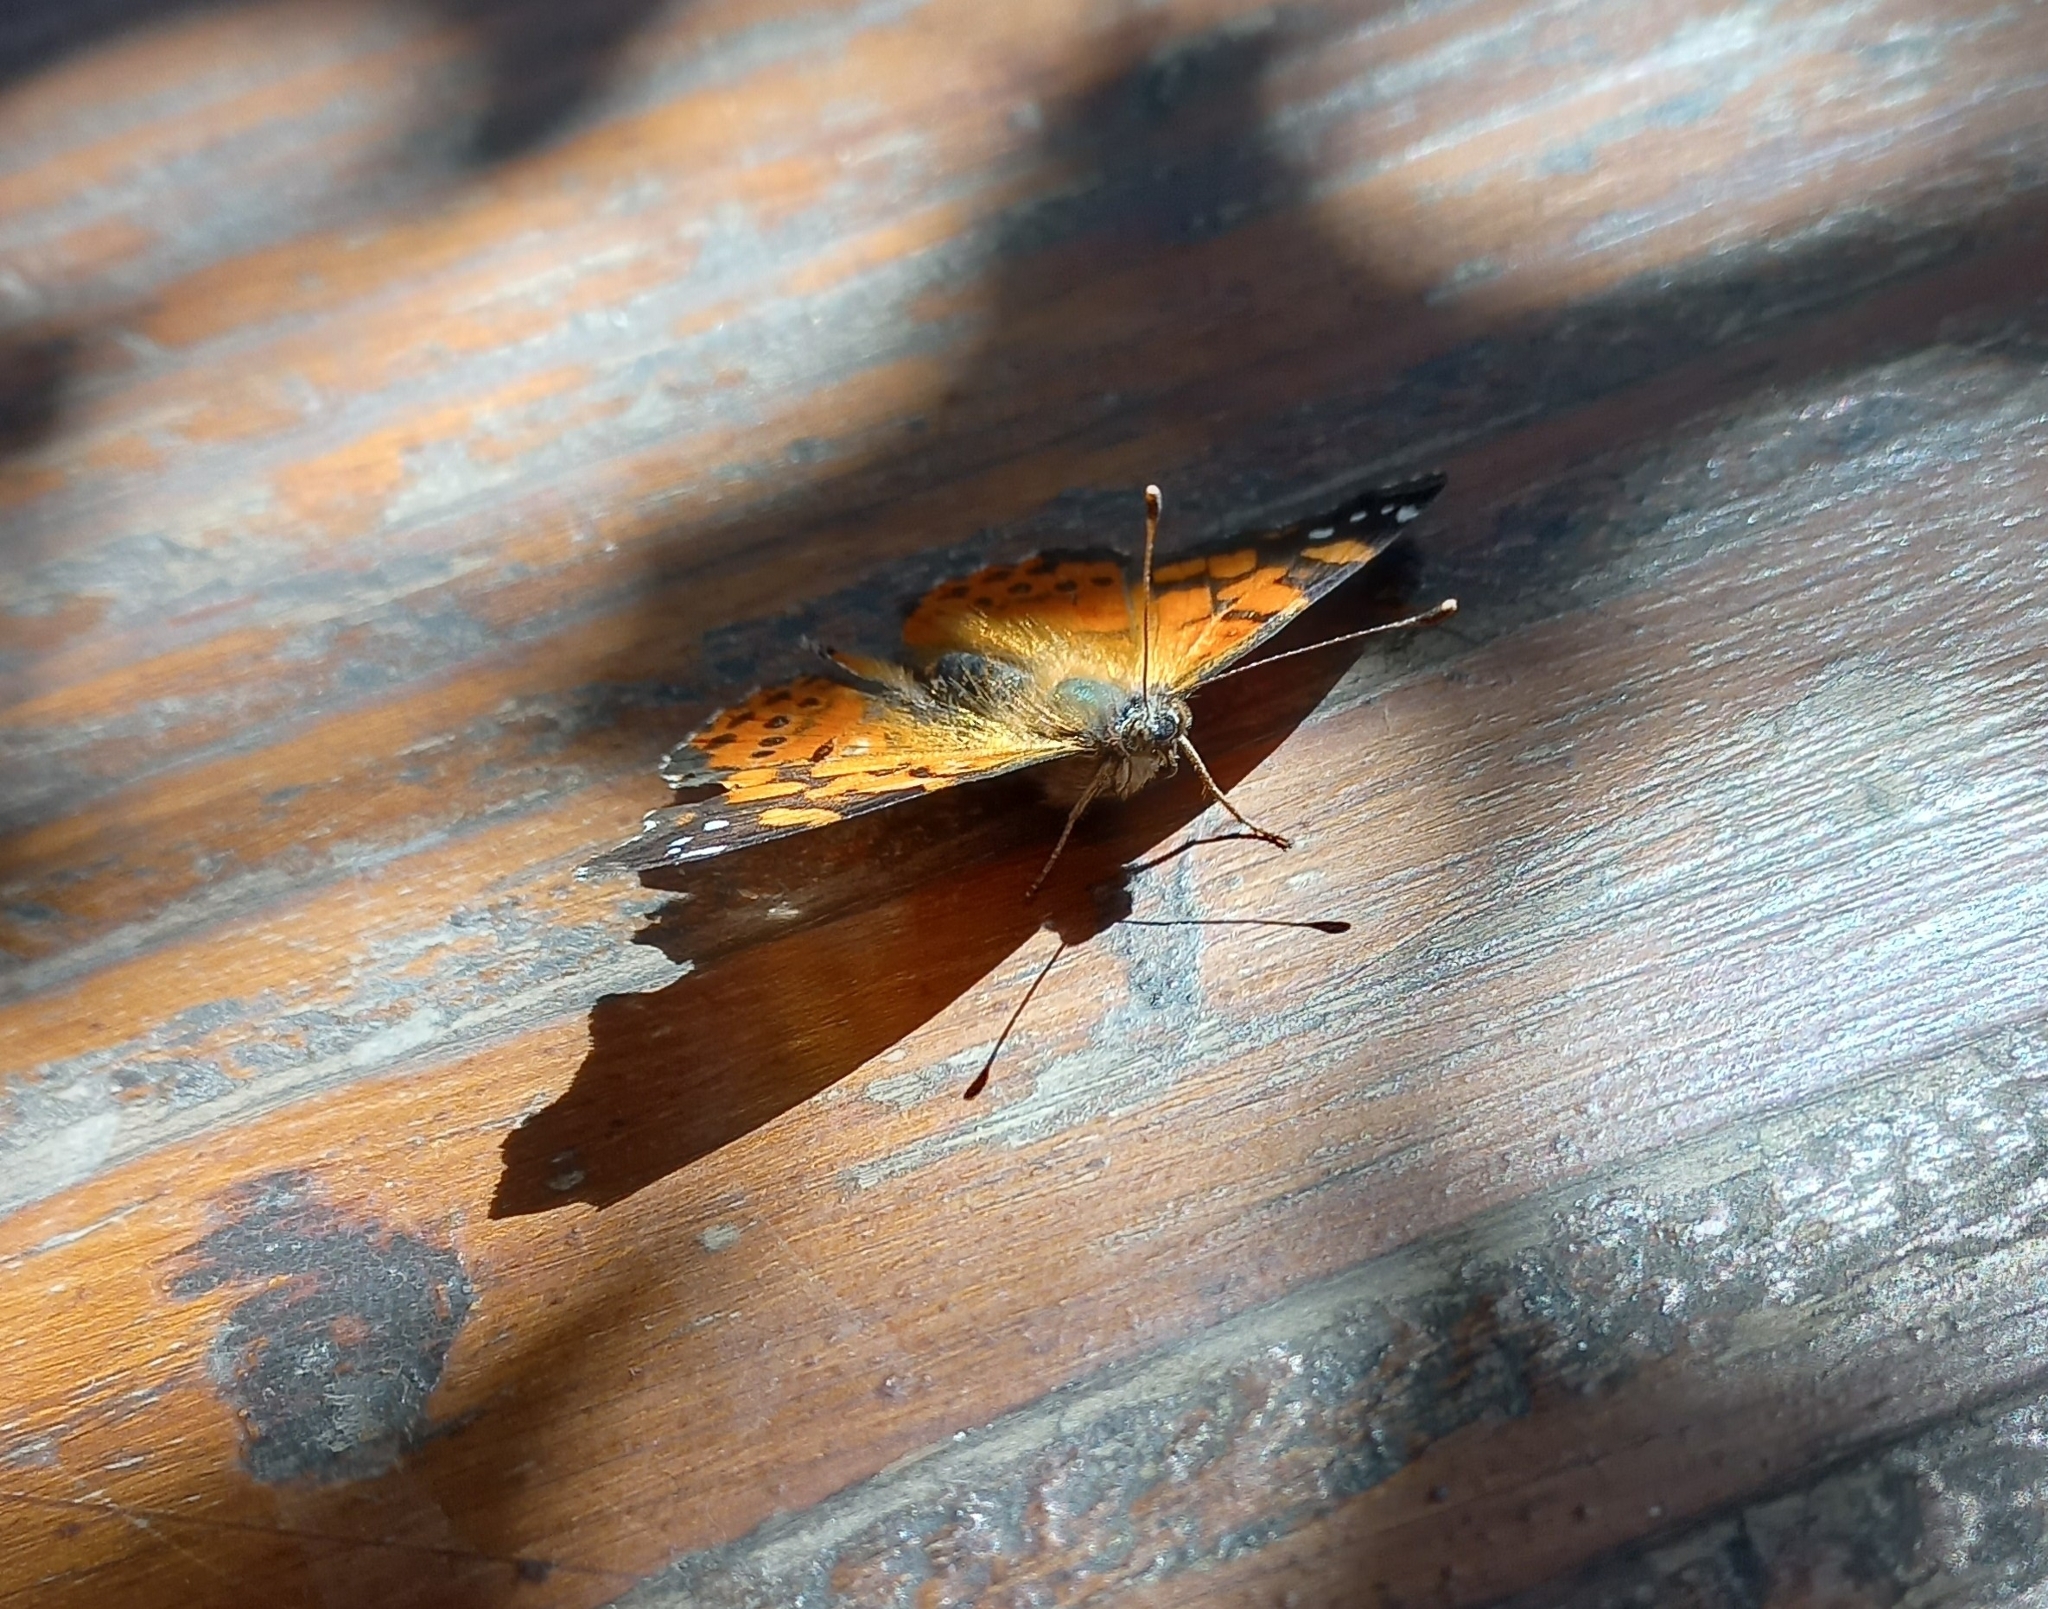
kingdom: Animalia
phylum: Arthropoda
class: Insecta
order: Lepidoptera
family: Nymphalidae
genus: Vanessa
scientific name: Vanessa carye
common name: Subtropical lady
